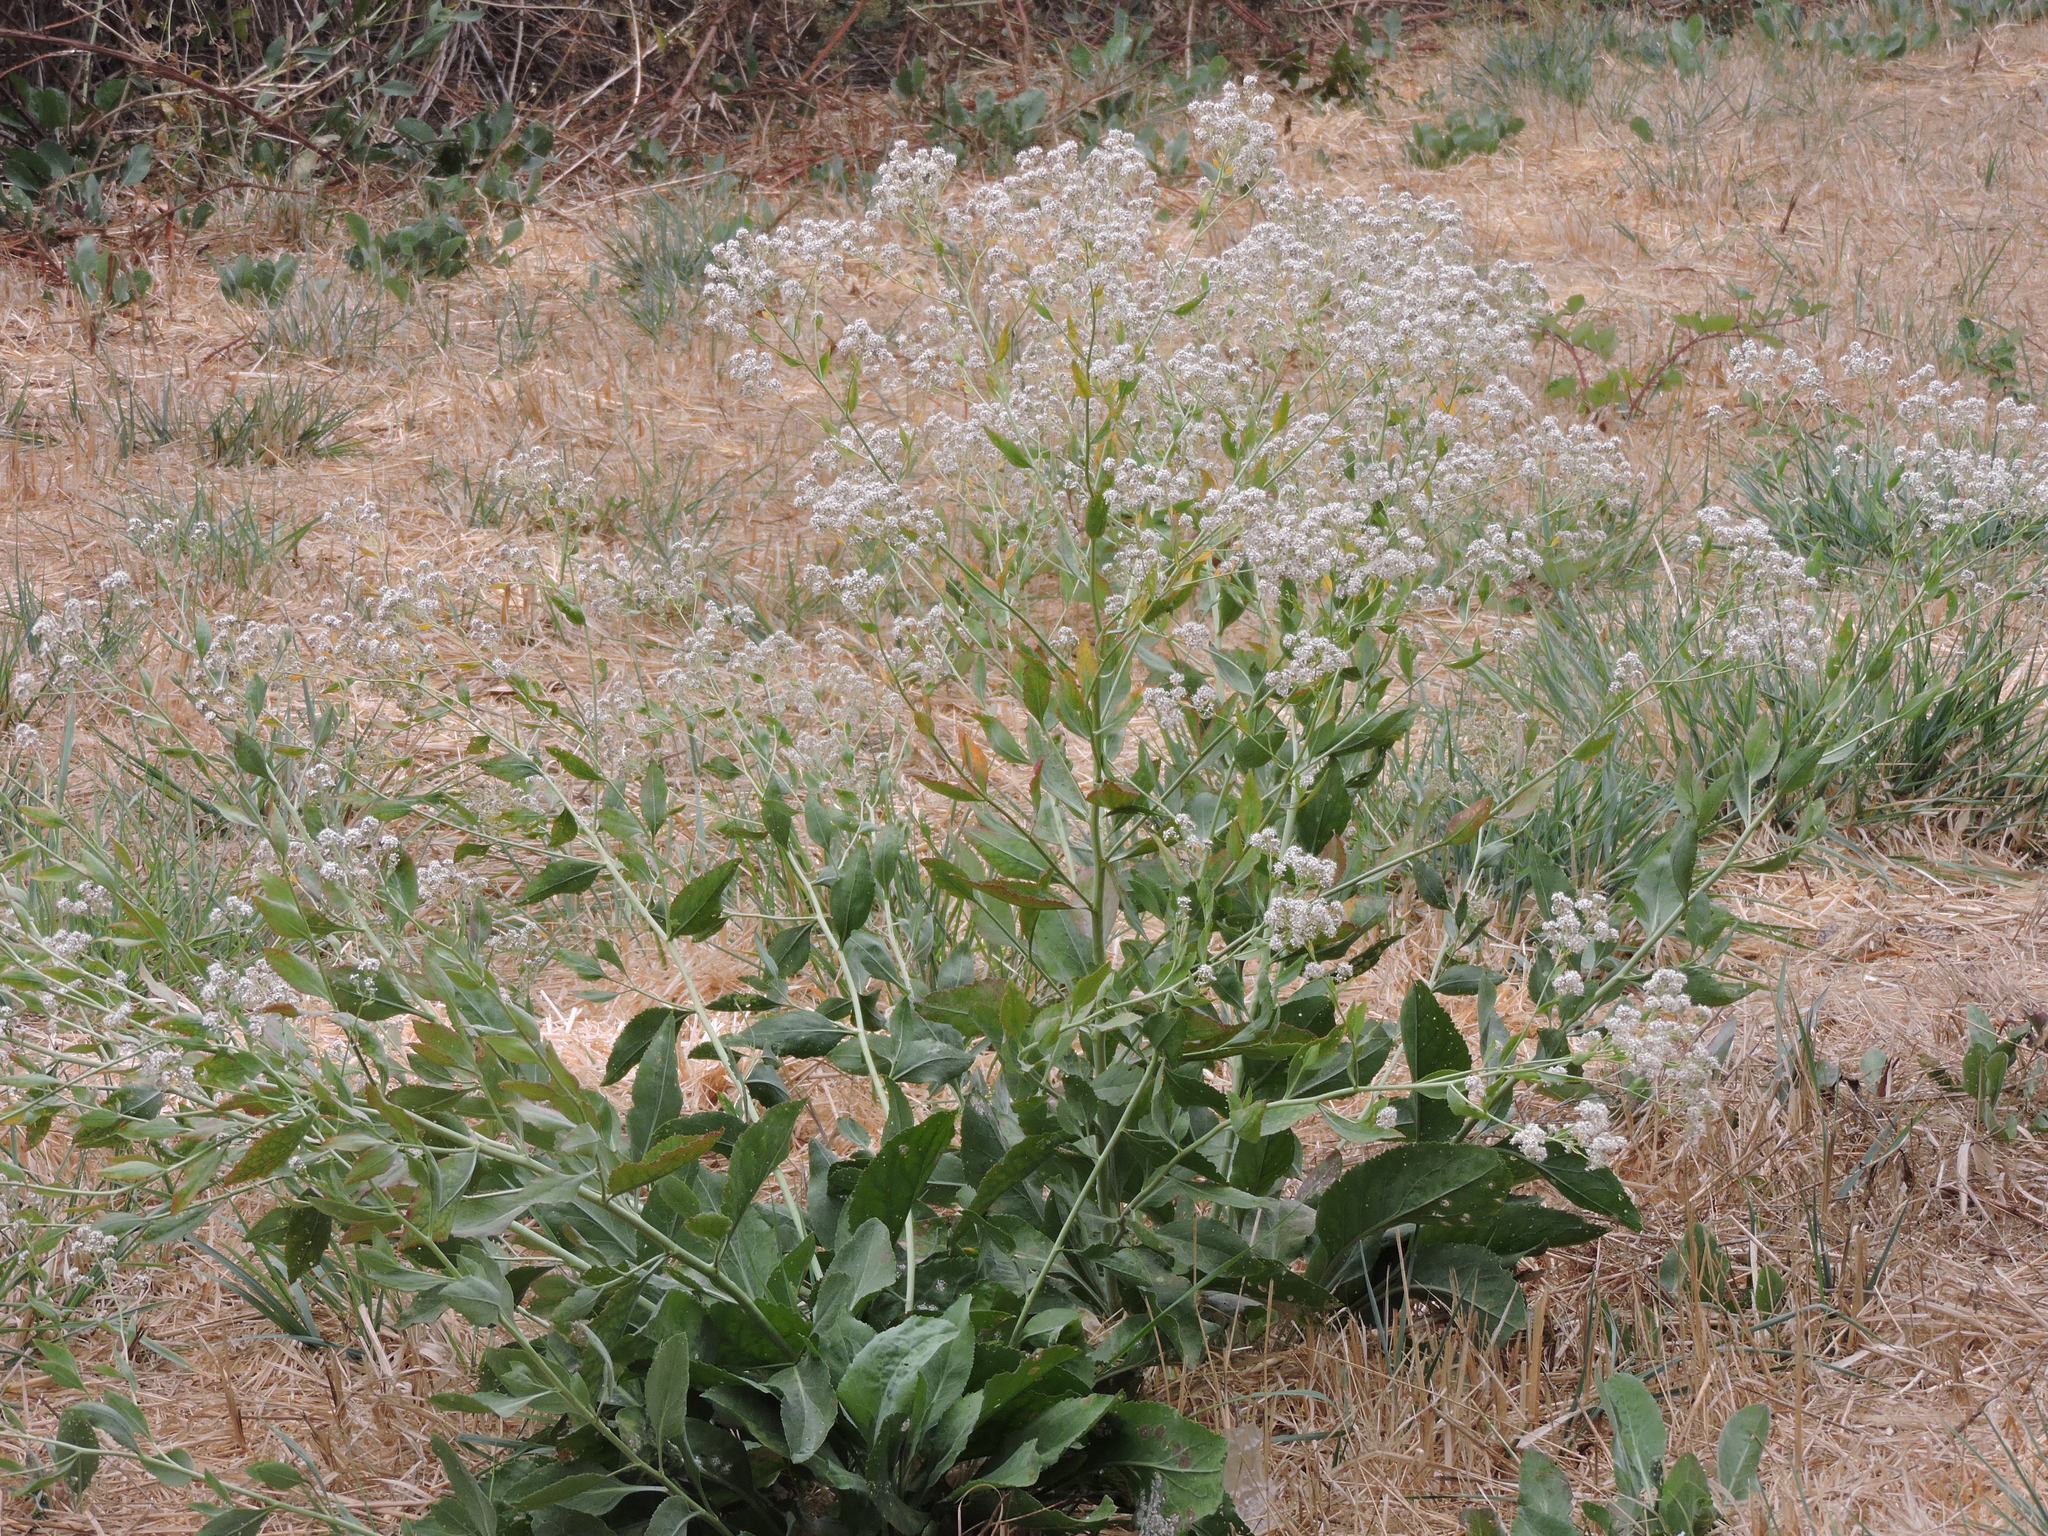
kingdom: Plantae
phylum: Tracheophyta
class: Magnoliopsida
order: Brassicales
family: Brassicaceae
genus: Lepidium
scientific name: Lepidium latifolium
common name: Dittander
